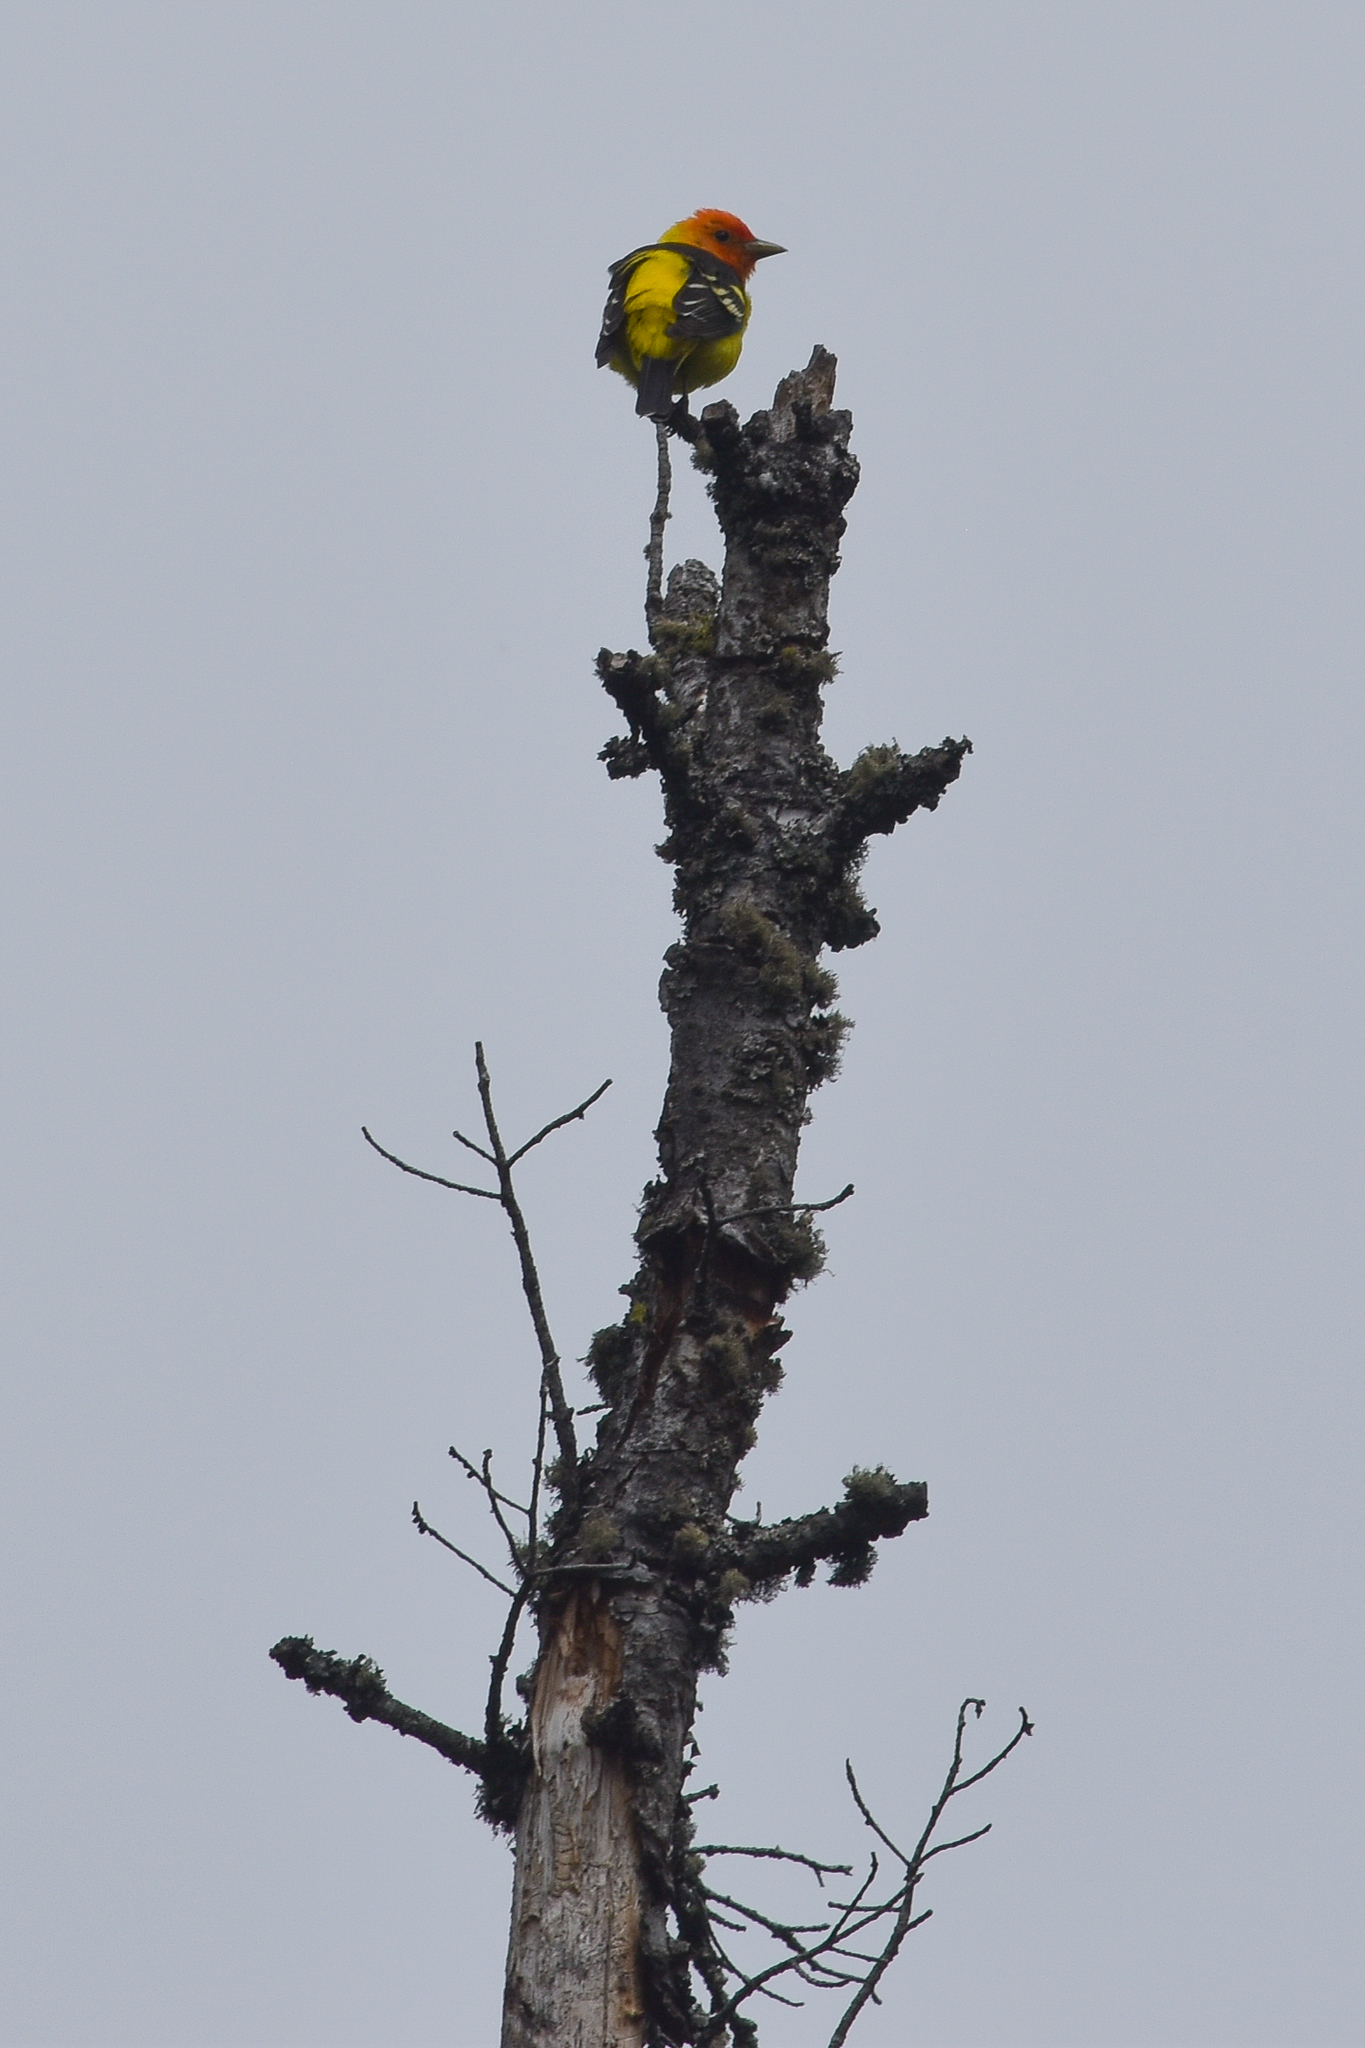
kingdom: Animalia
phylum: Chordata
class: Aves
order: Passeriformes
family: Cardinalidae
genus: Piranga
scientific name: Piranga ludoviciana
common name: Western tanager
